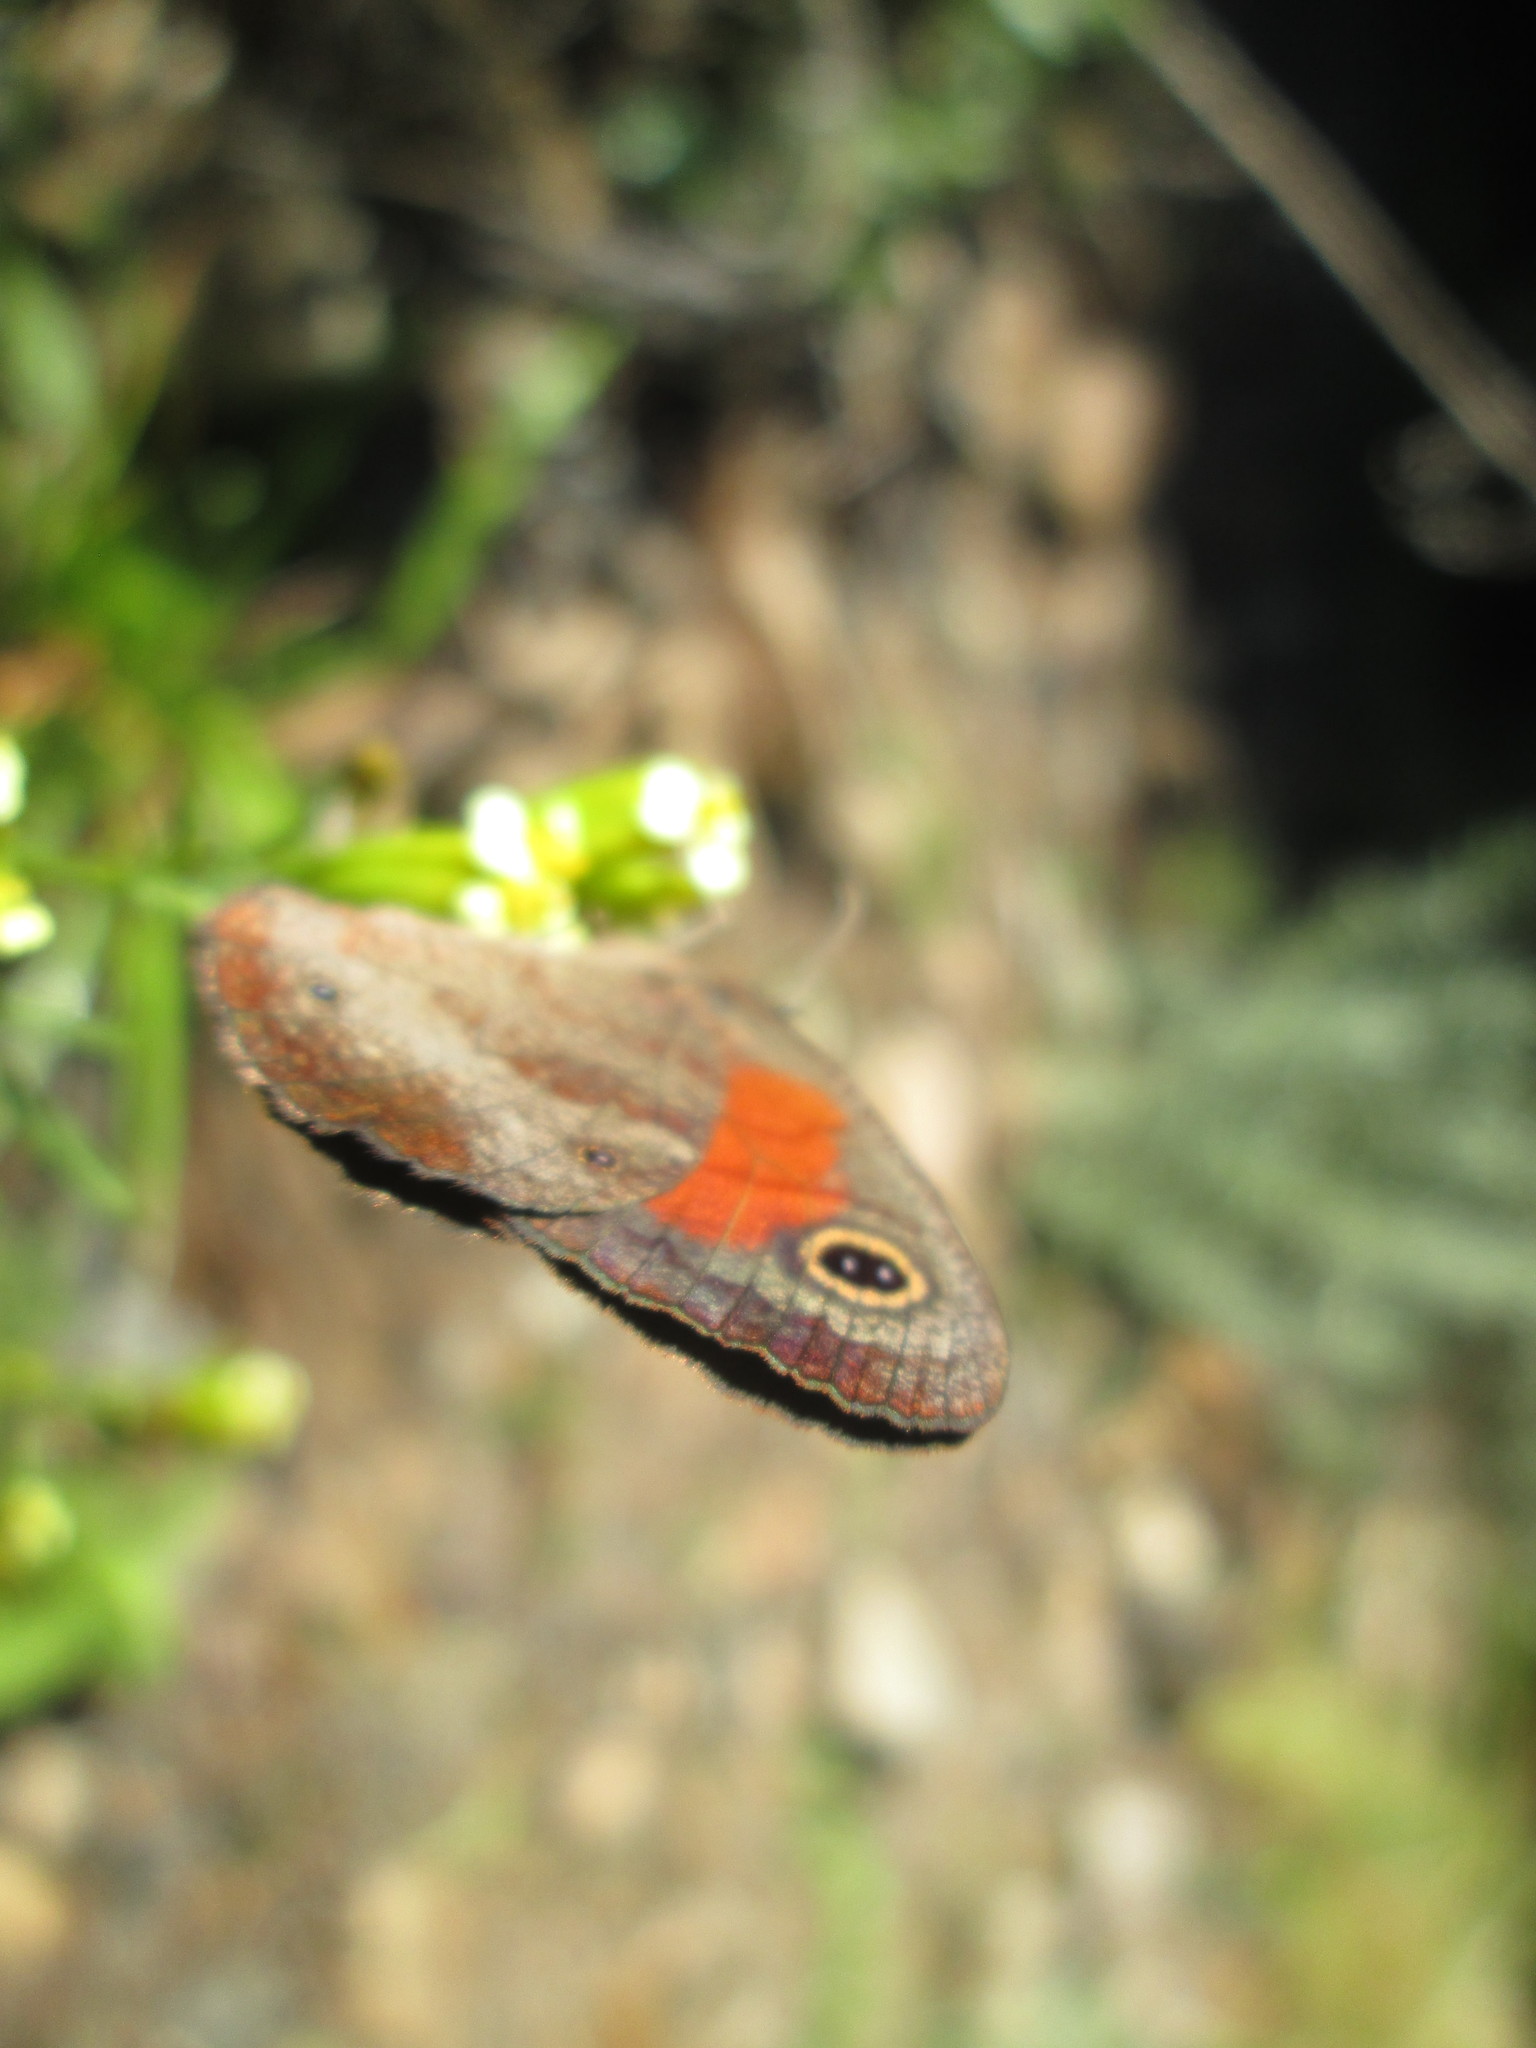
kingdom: Animalia
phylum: Arthropoda
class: Insecta
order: Lepidoptera
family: Nymphalidae
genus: Cassionympha
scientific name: Cassionympha cassius
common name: Rainforest brown
